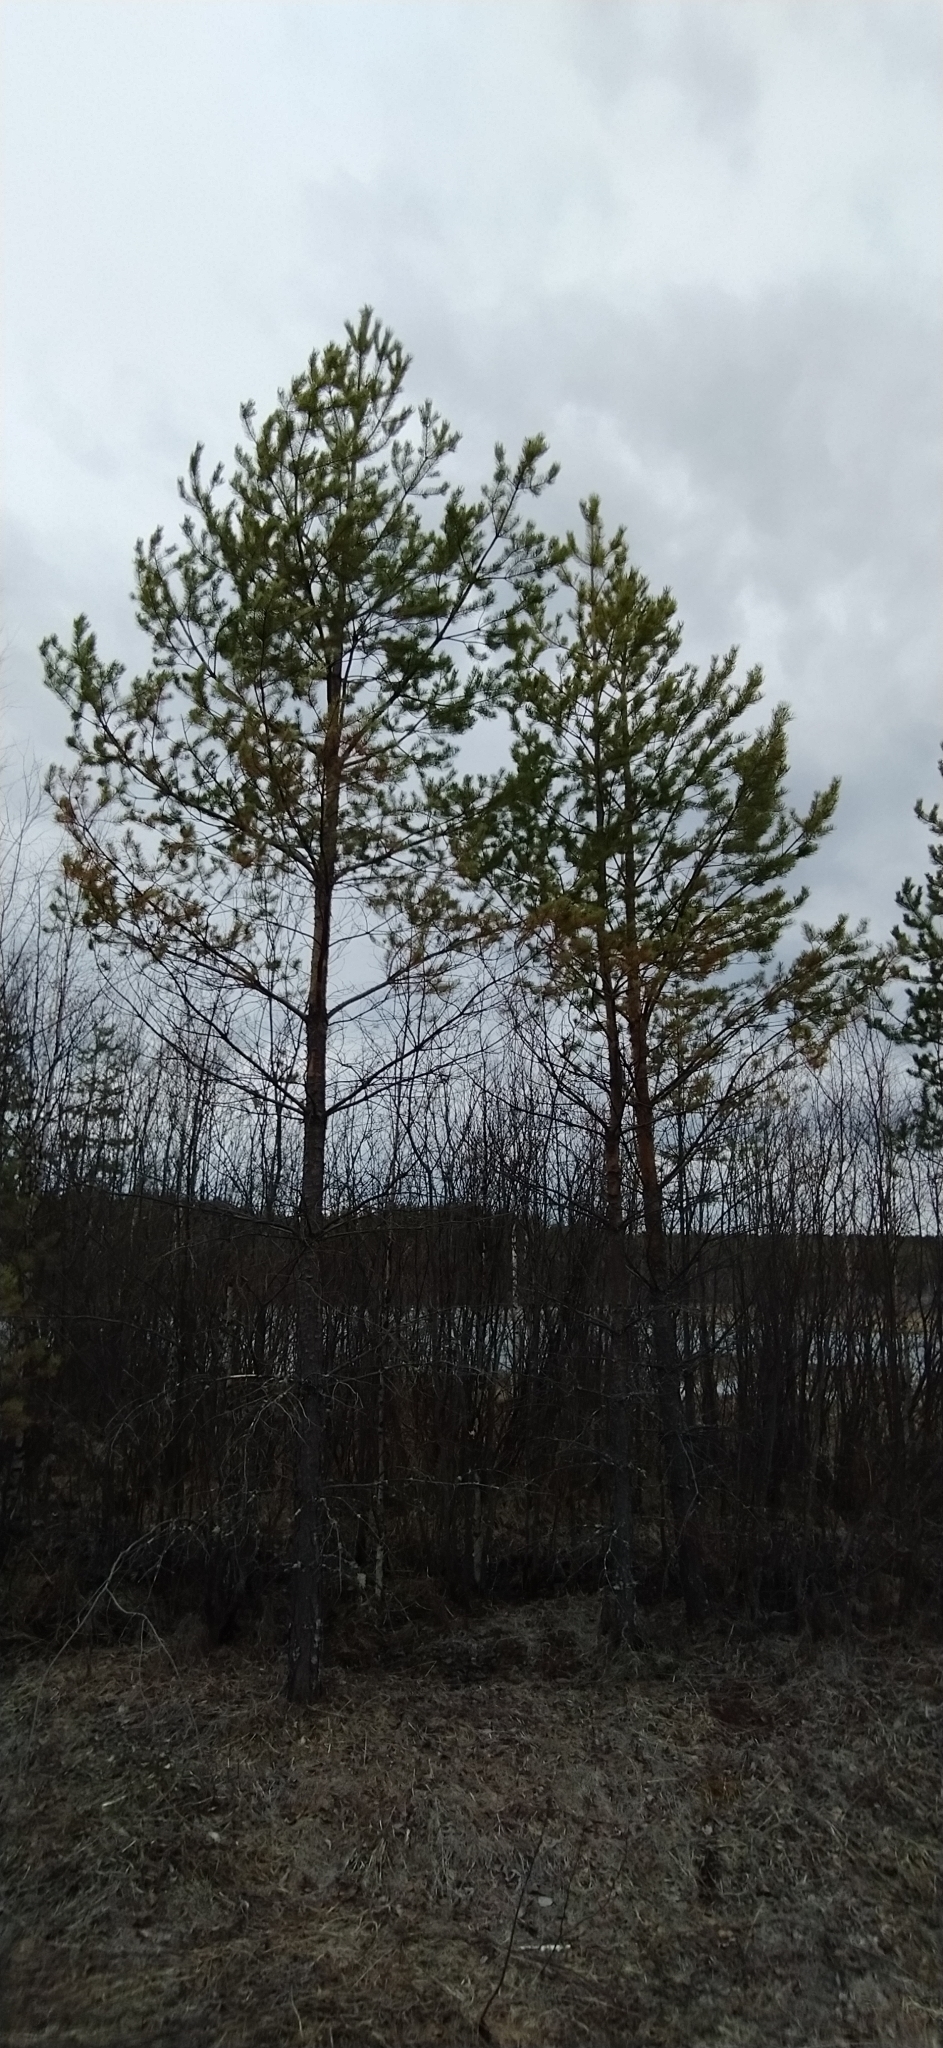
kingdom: Plantae
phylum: Tracheophyta
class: Pinopsida
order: Pinales
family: Pinaceae
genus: Pinus
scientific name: Pinus sylvestris
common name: Scots pine
